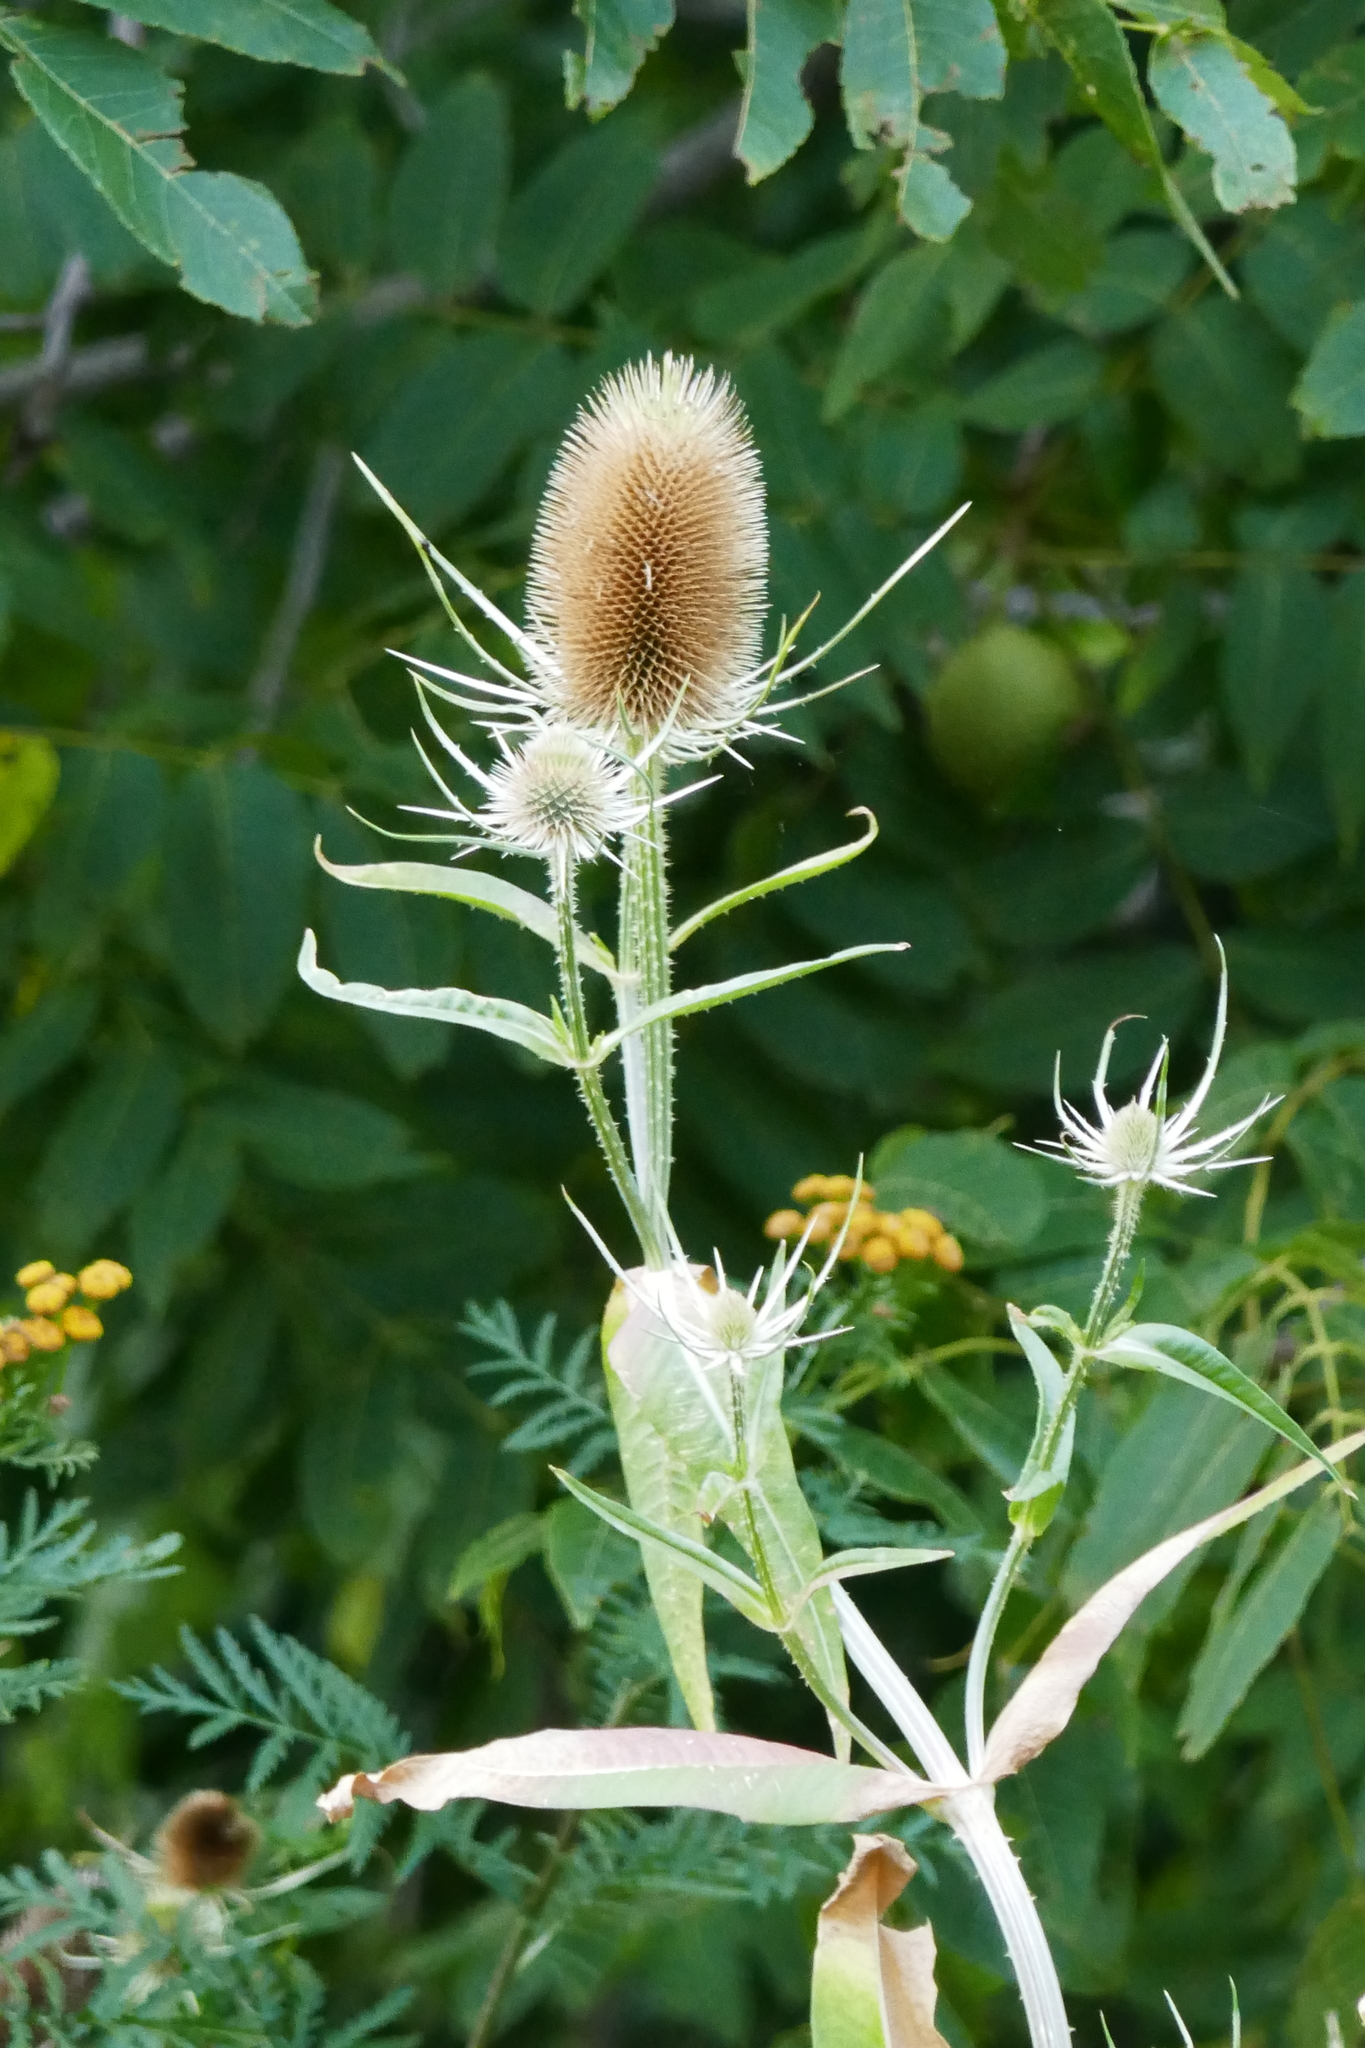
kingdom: Plantae
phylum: Tracheophyta
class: Magnoliopsida
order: Dipsacales
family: Caprifoliaceae
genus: Dipsacus
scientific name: Dipsacus fullonum
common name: Teasel
